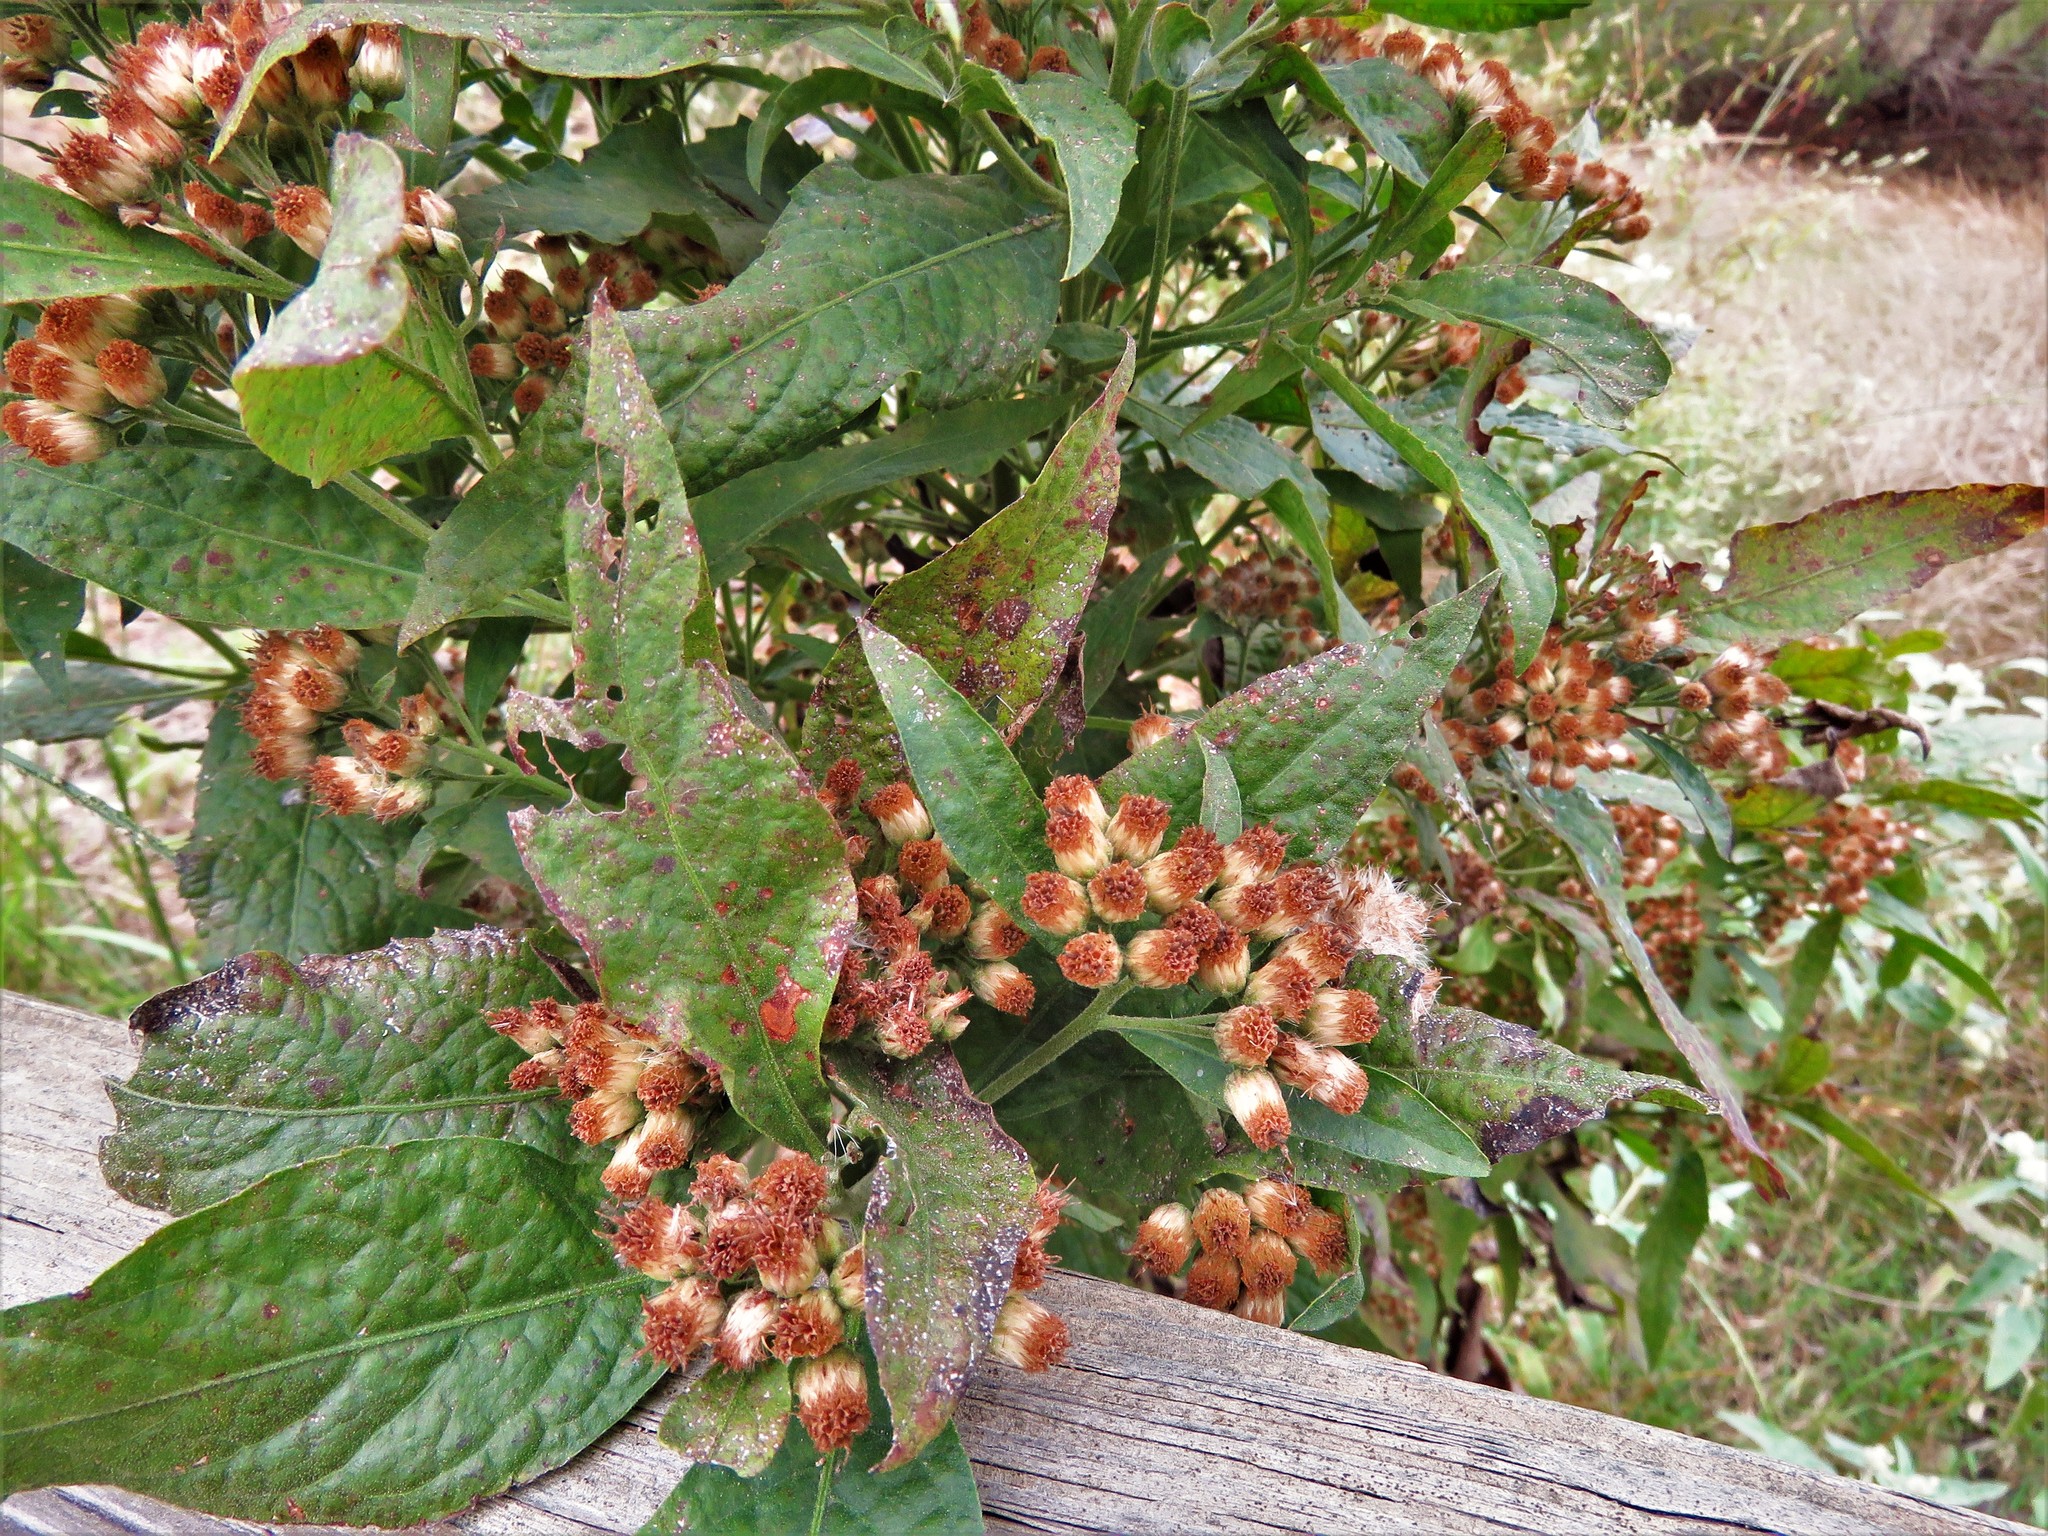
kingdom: Plantae
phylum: Tracheophyta
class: Magnoliopsida
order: Asterales
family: Asteraceae
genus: Pluchea
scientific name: Pluchea camphorata
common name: Camphor pluchea
